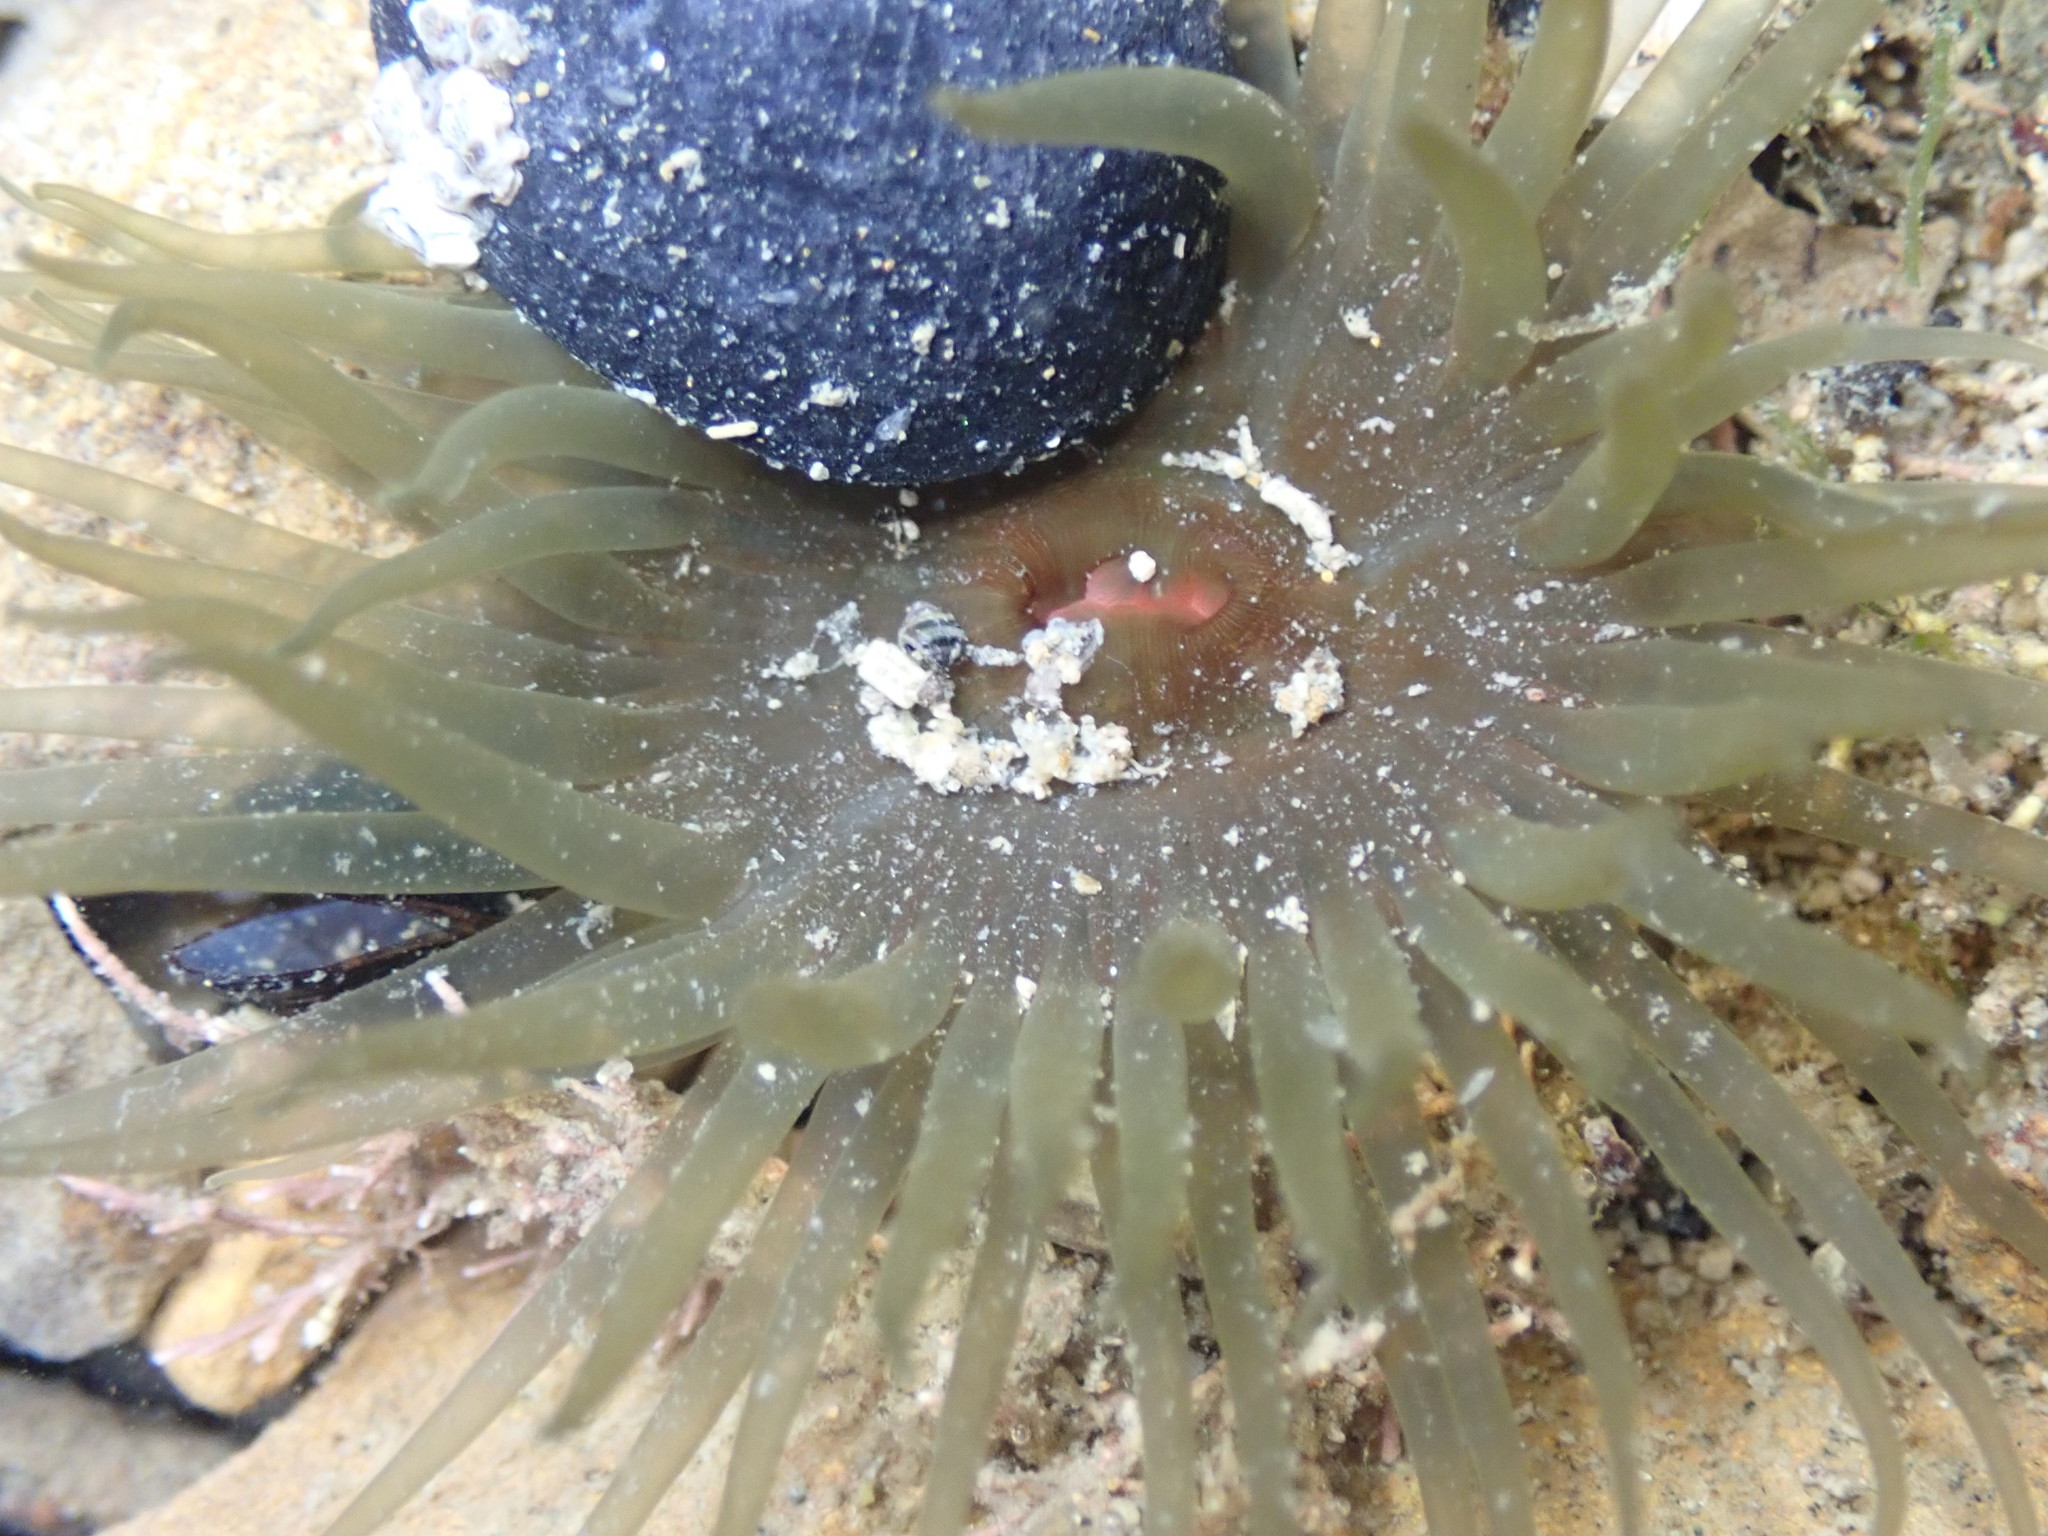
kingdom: Animalia
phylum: Cnidaria
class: Anthozoa
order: Actiniaria
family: Actiniidae
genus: Isactinia
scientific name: Isactinia olivacea
